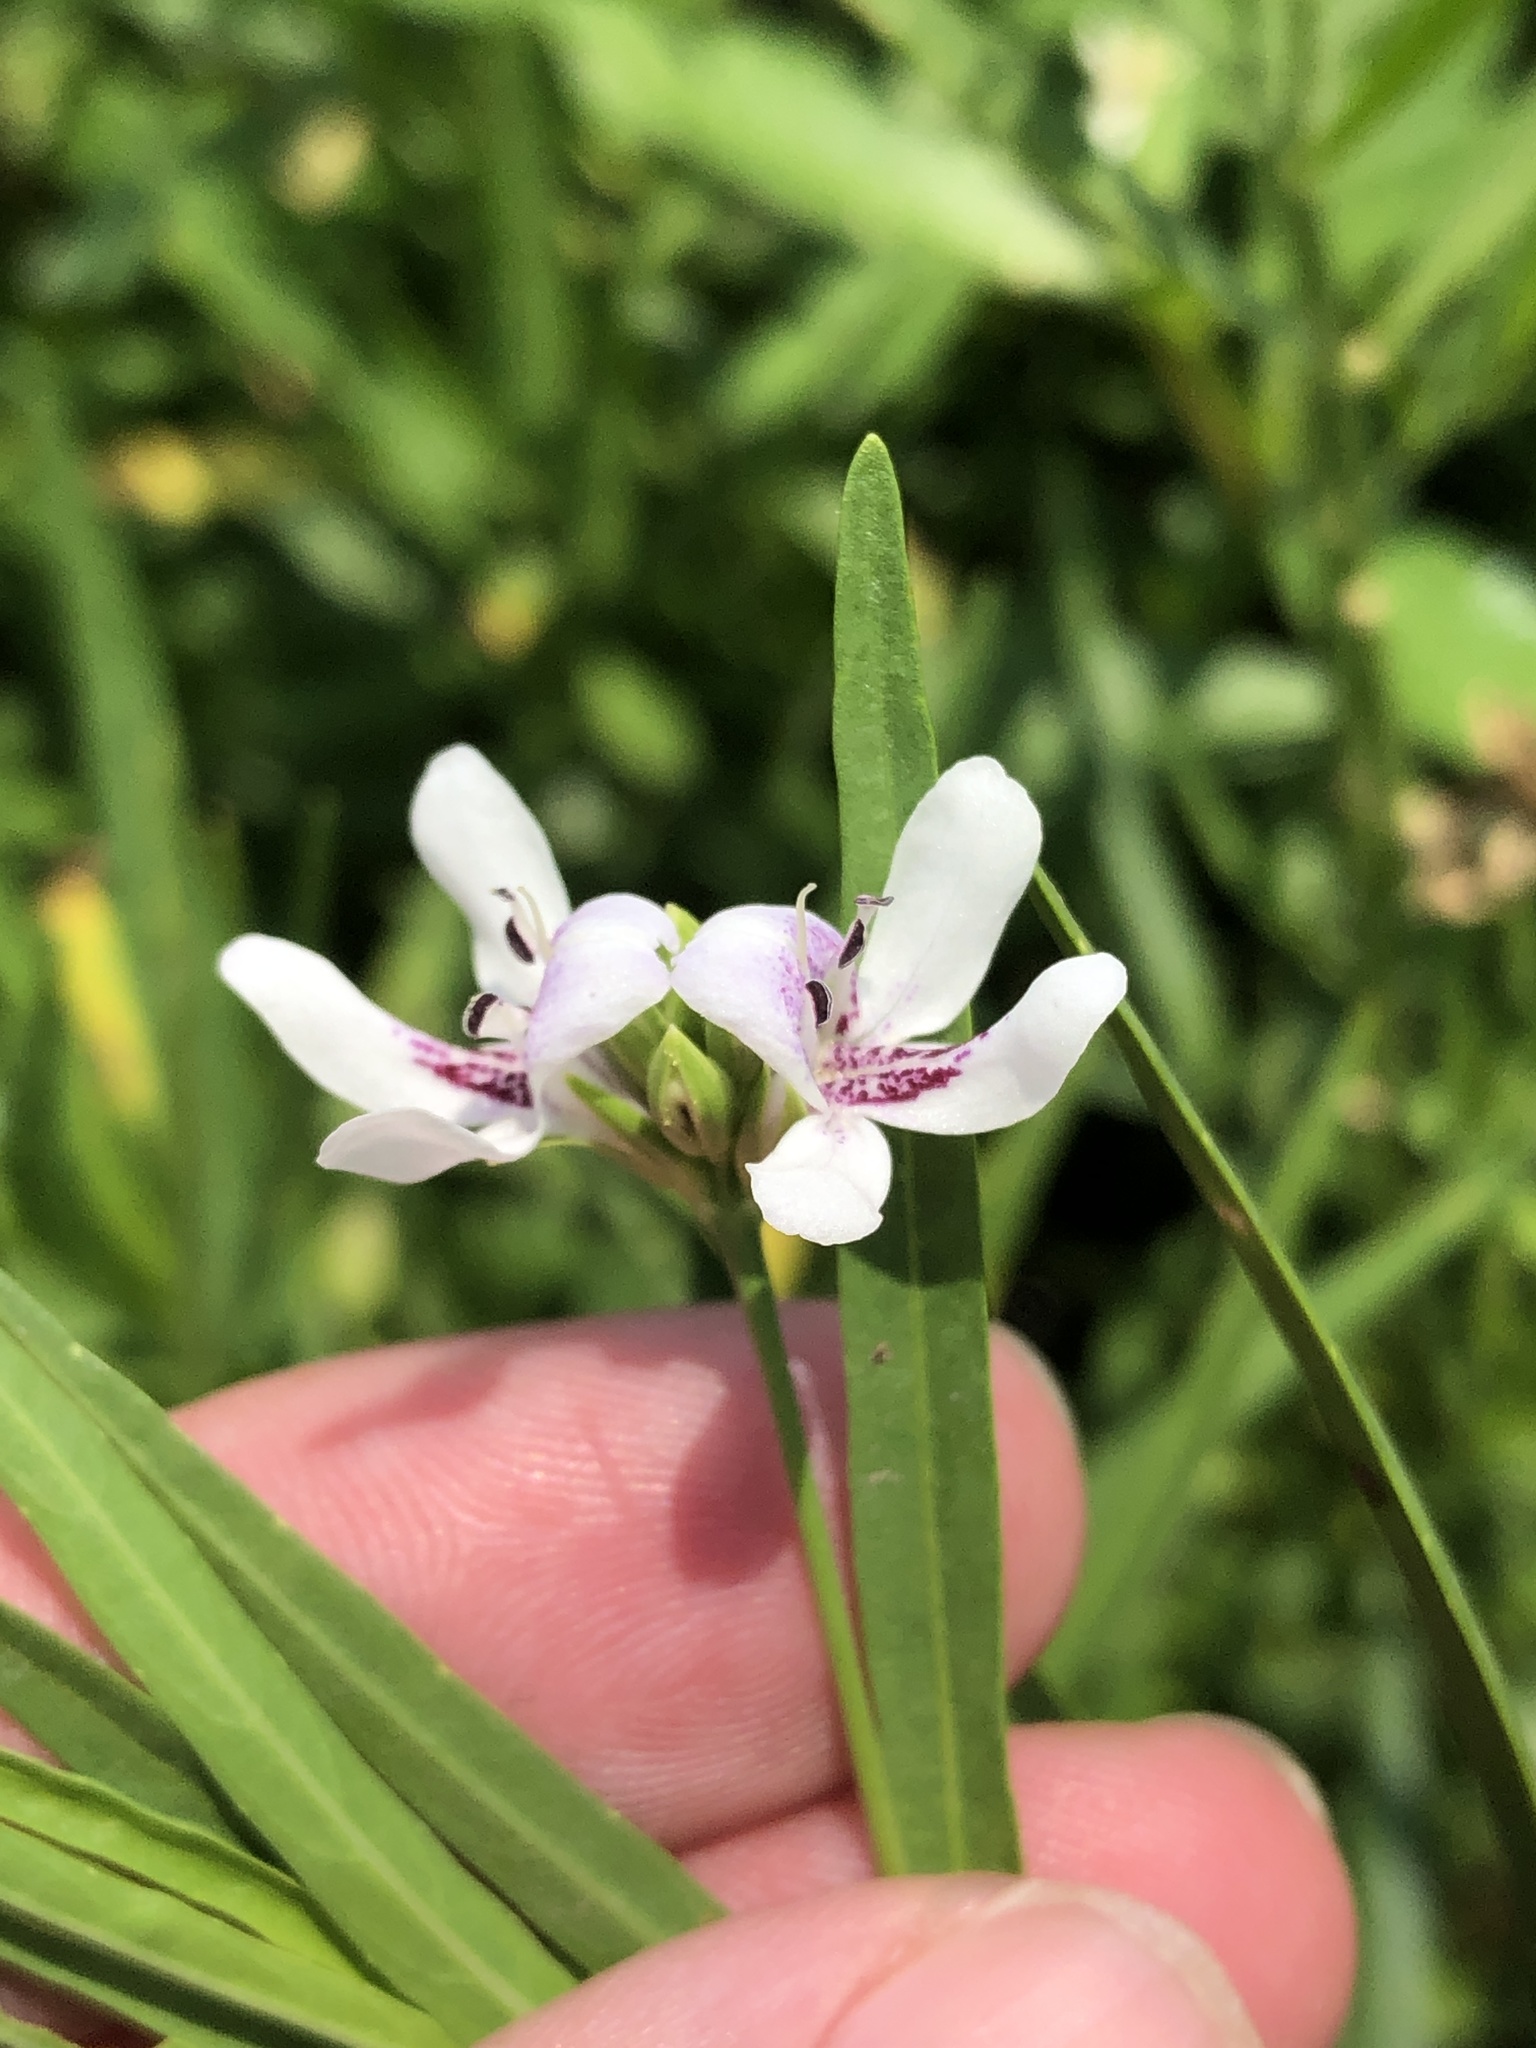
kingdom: Plantae
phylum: Tracheophyta
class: Magnoliopsida
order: Lamiales
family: Acanthaceae
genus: Dianthera
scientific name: Dianthera americana
